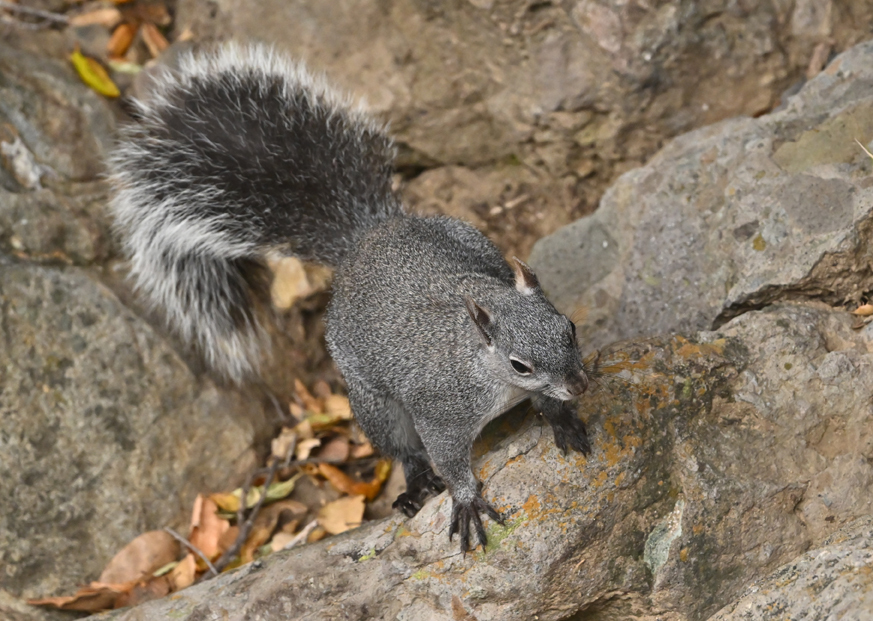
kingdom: Animalia
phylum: Chordata
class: Mammalia
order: Rodentia
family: Sciuridae
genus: Sciurus
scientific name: Sciurus griseus
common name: Western gray squirrel
